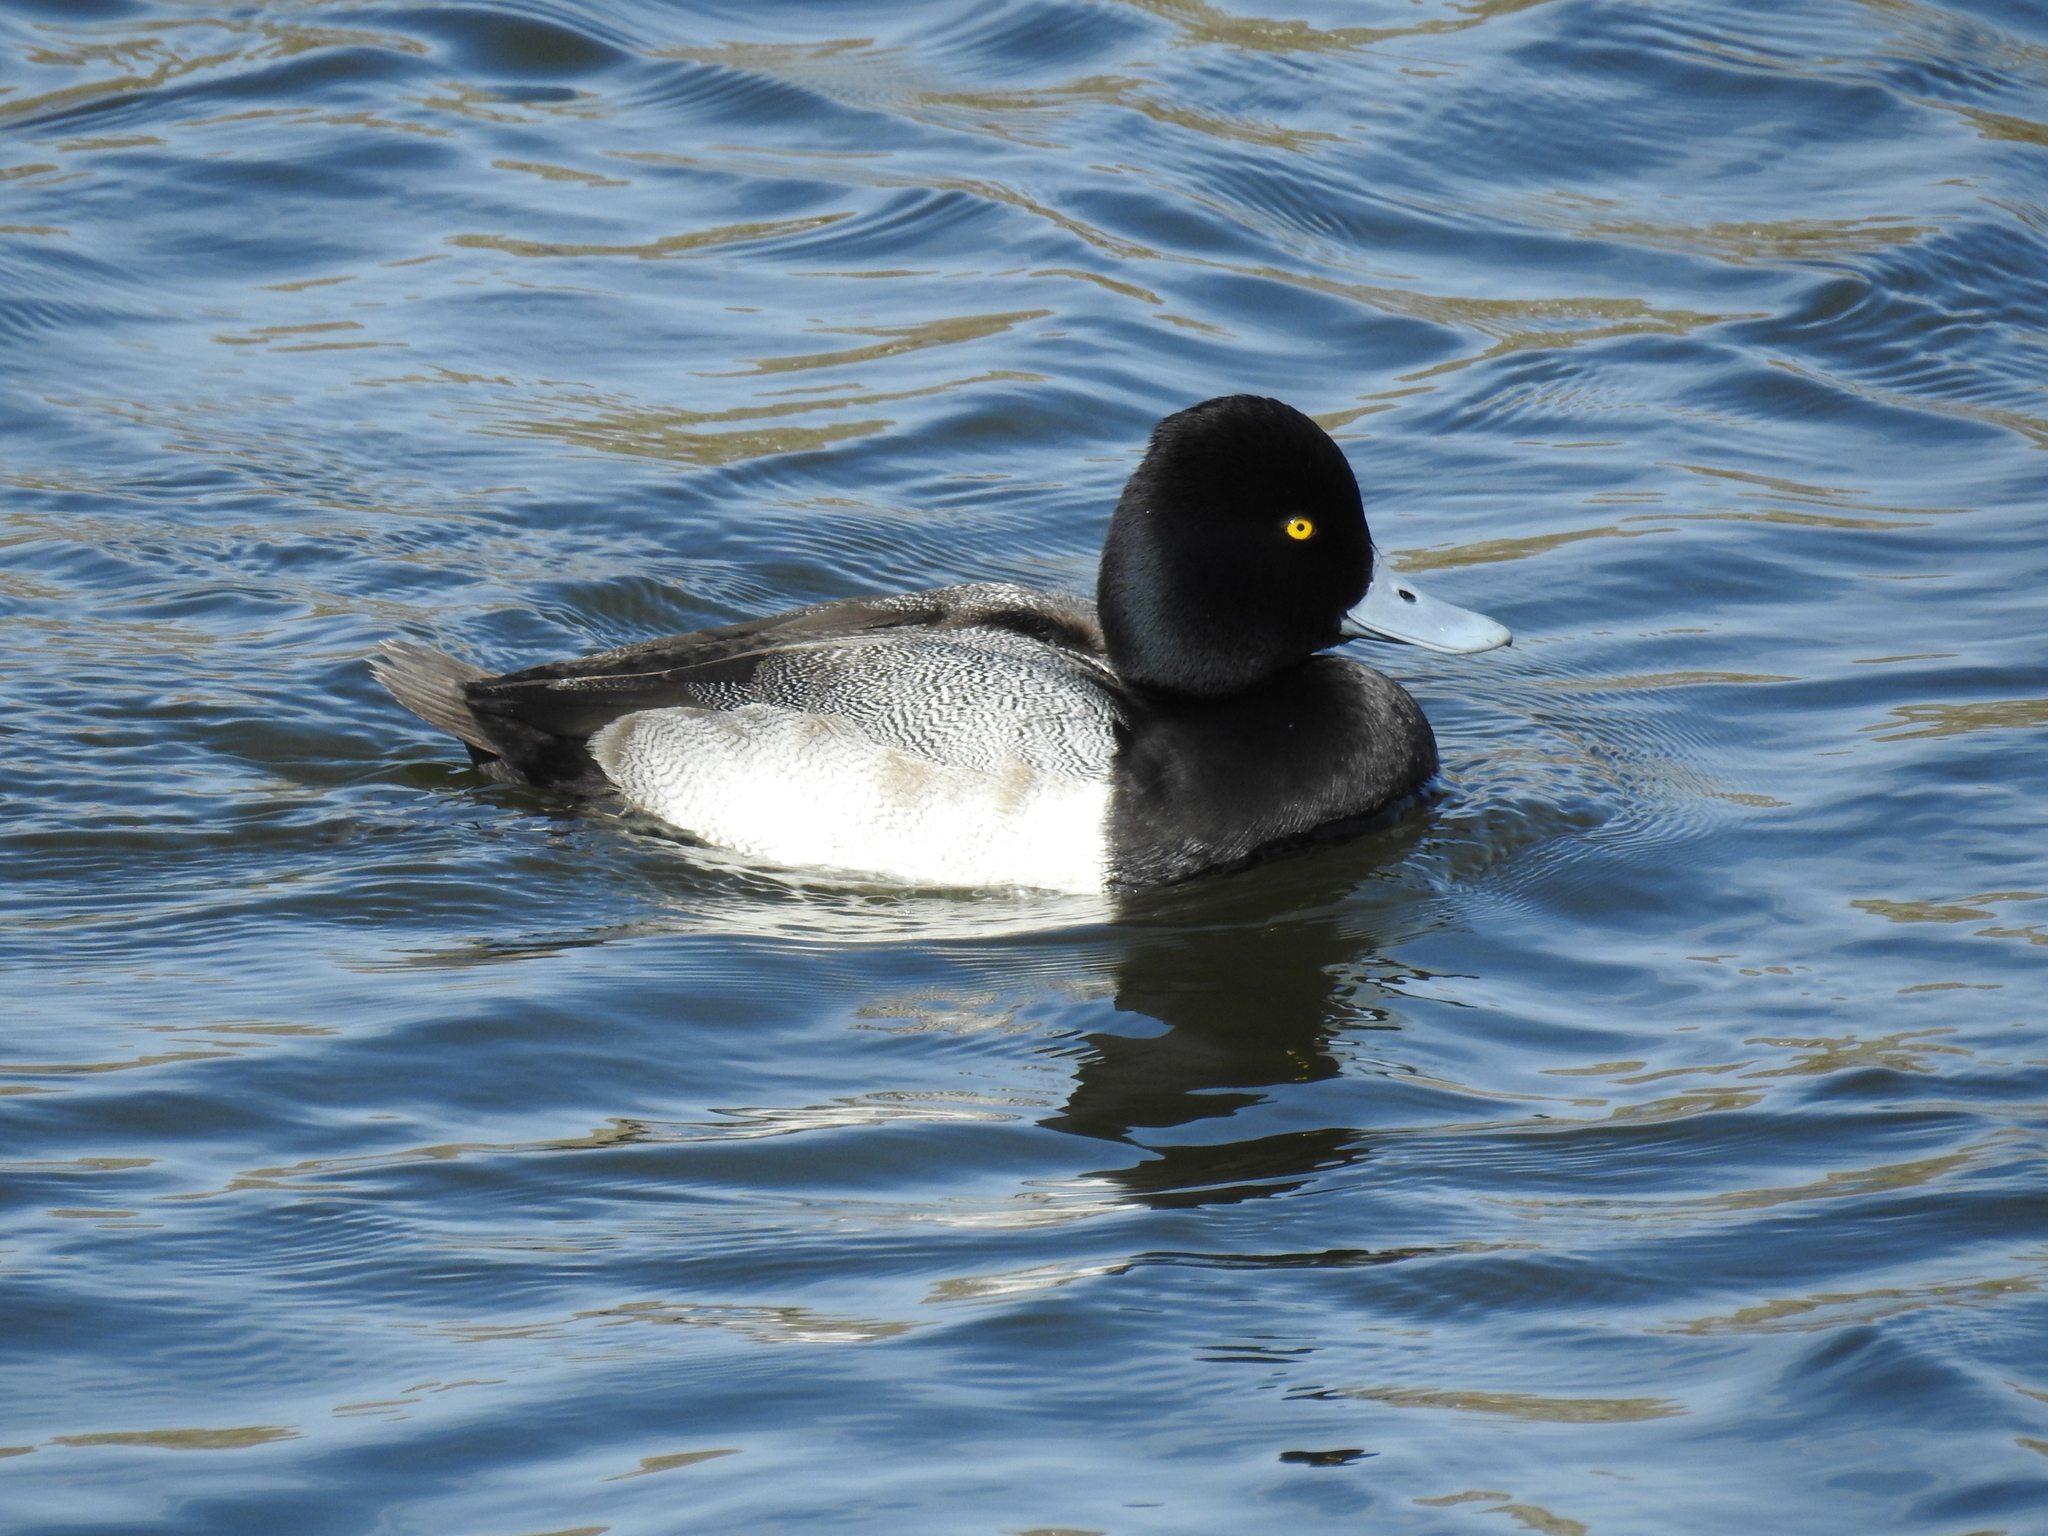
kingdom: Animalia
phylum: Chordata
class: Aves
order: Anseriformes
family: Anatidae
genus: Aythya
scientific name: Aythya affinis
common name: Lesser scaup
